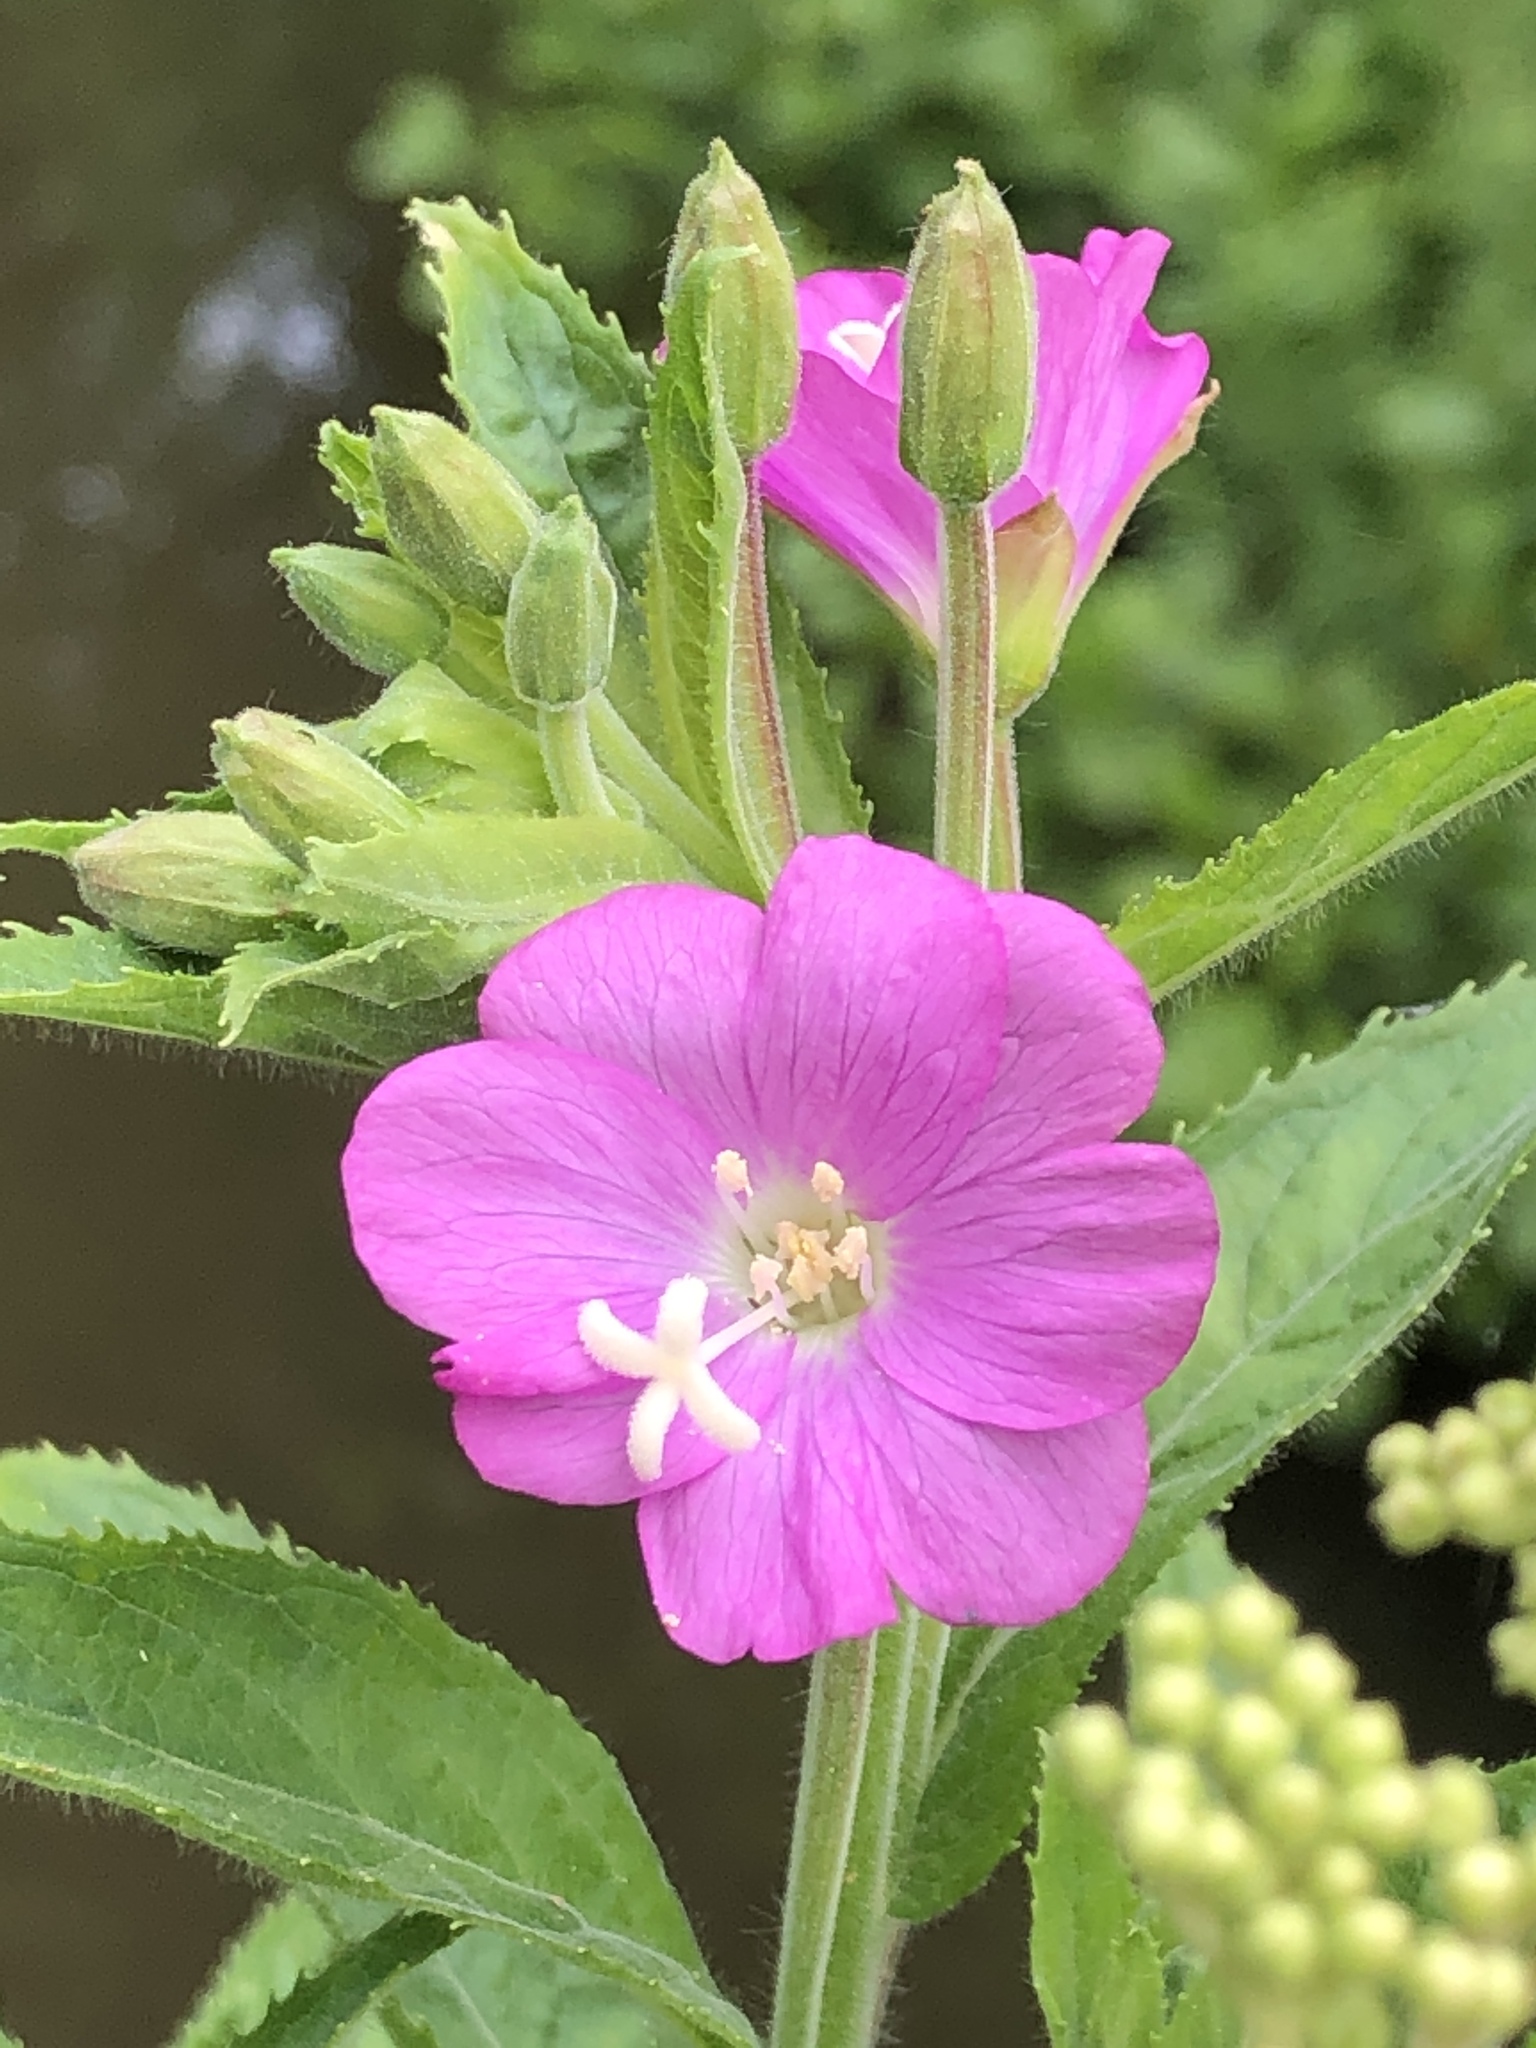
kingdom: Plantae
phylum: Tracheophyta
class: Magnoliopsida
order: Myrtales
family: Onagraceae
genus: Epilobium
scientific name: Epilobium hirsutum
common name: Great willowherb
